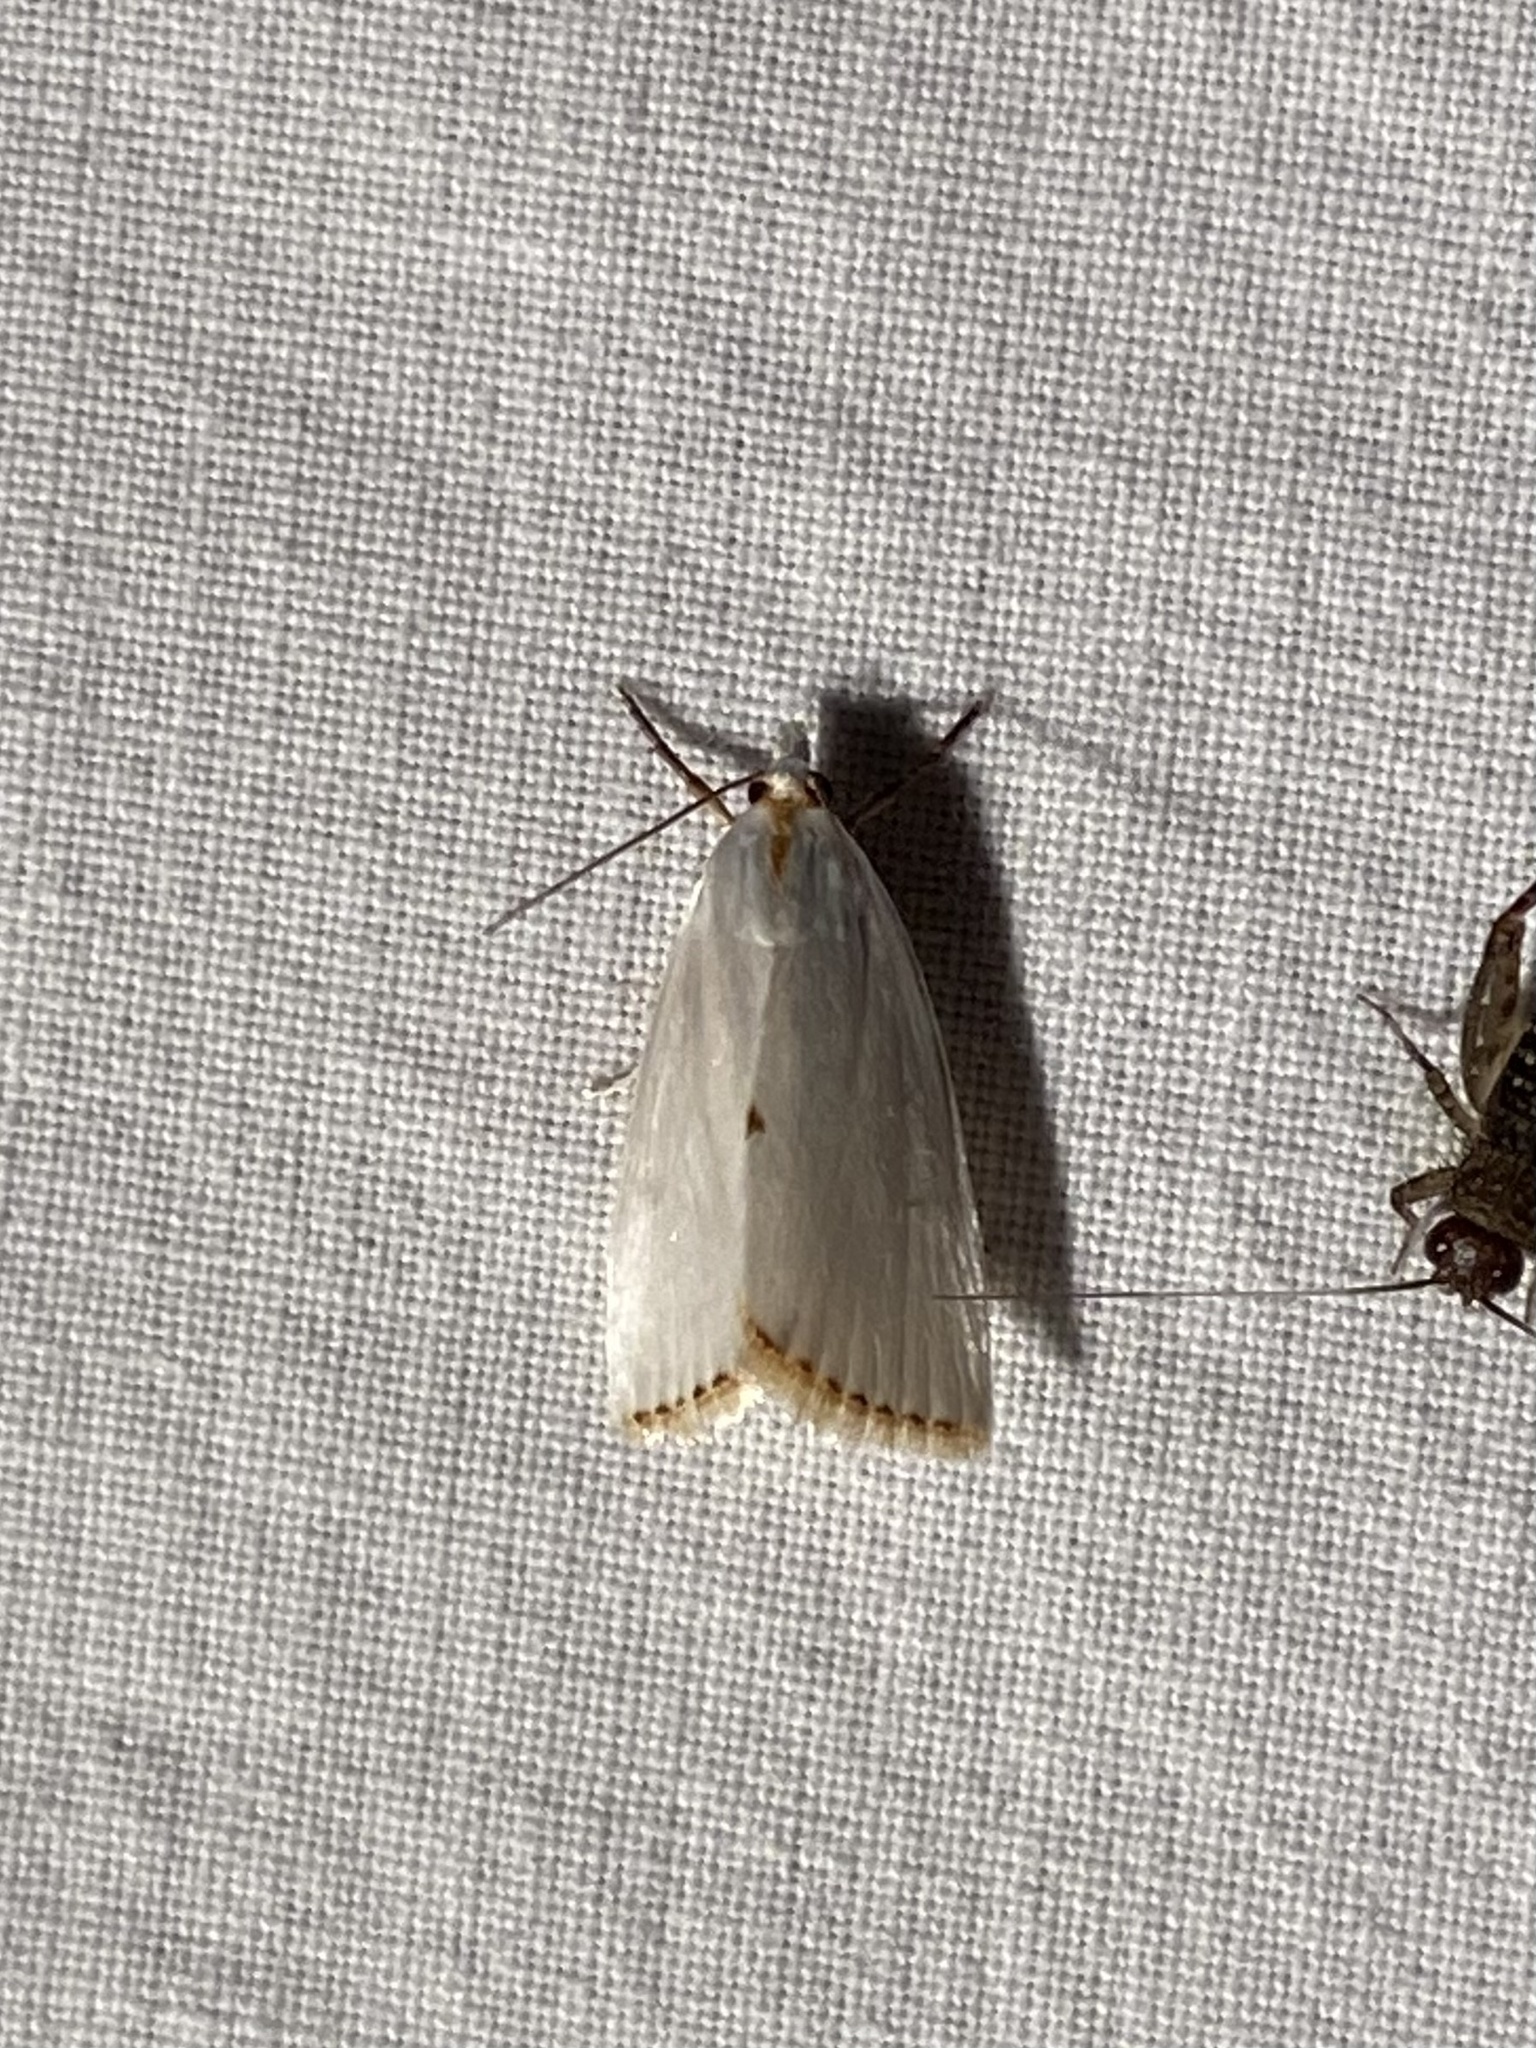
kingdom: Animalia
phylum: Arthropoda
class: Insecta
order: Lepidoptera
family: Crambidae
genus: Argyria
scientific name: Argyria nivalis
